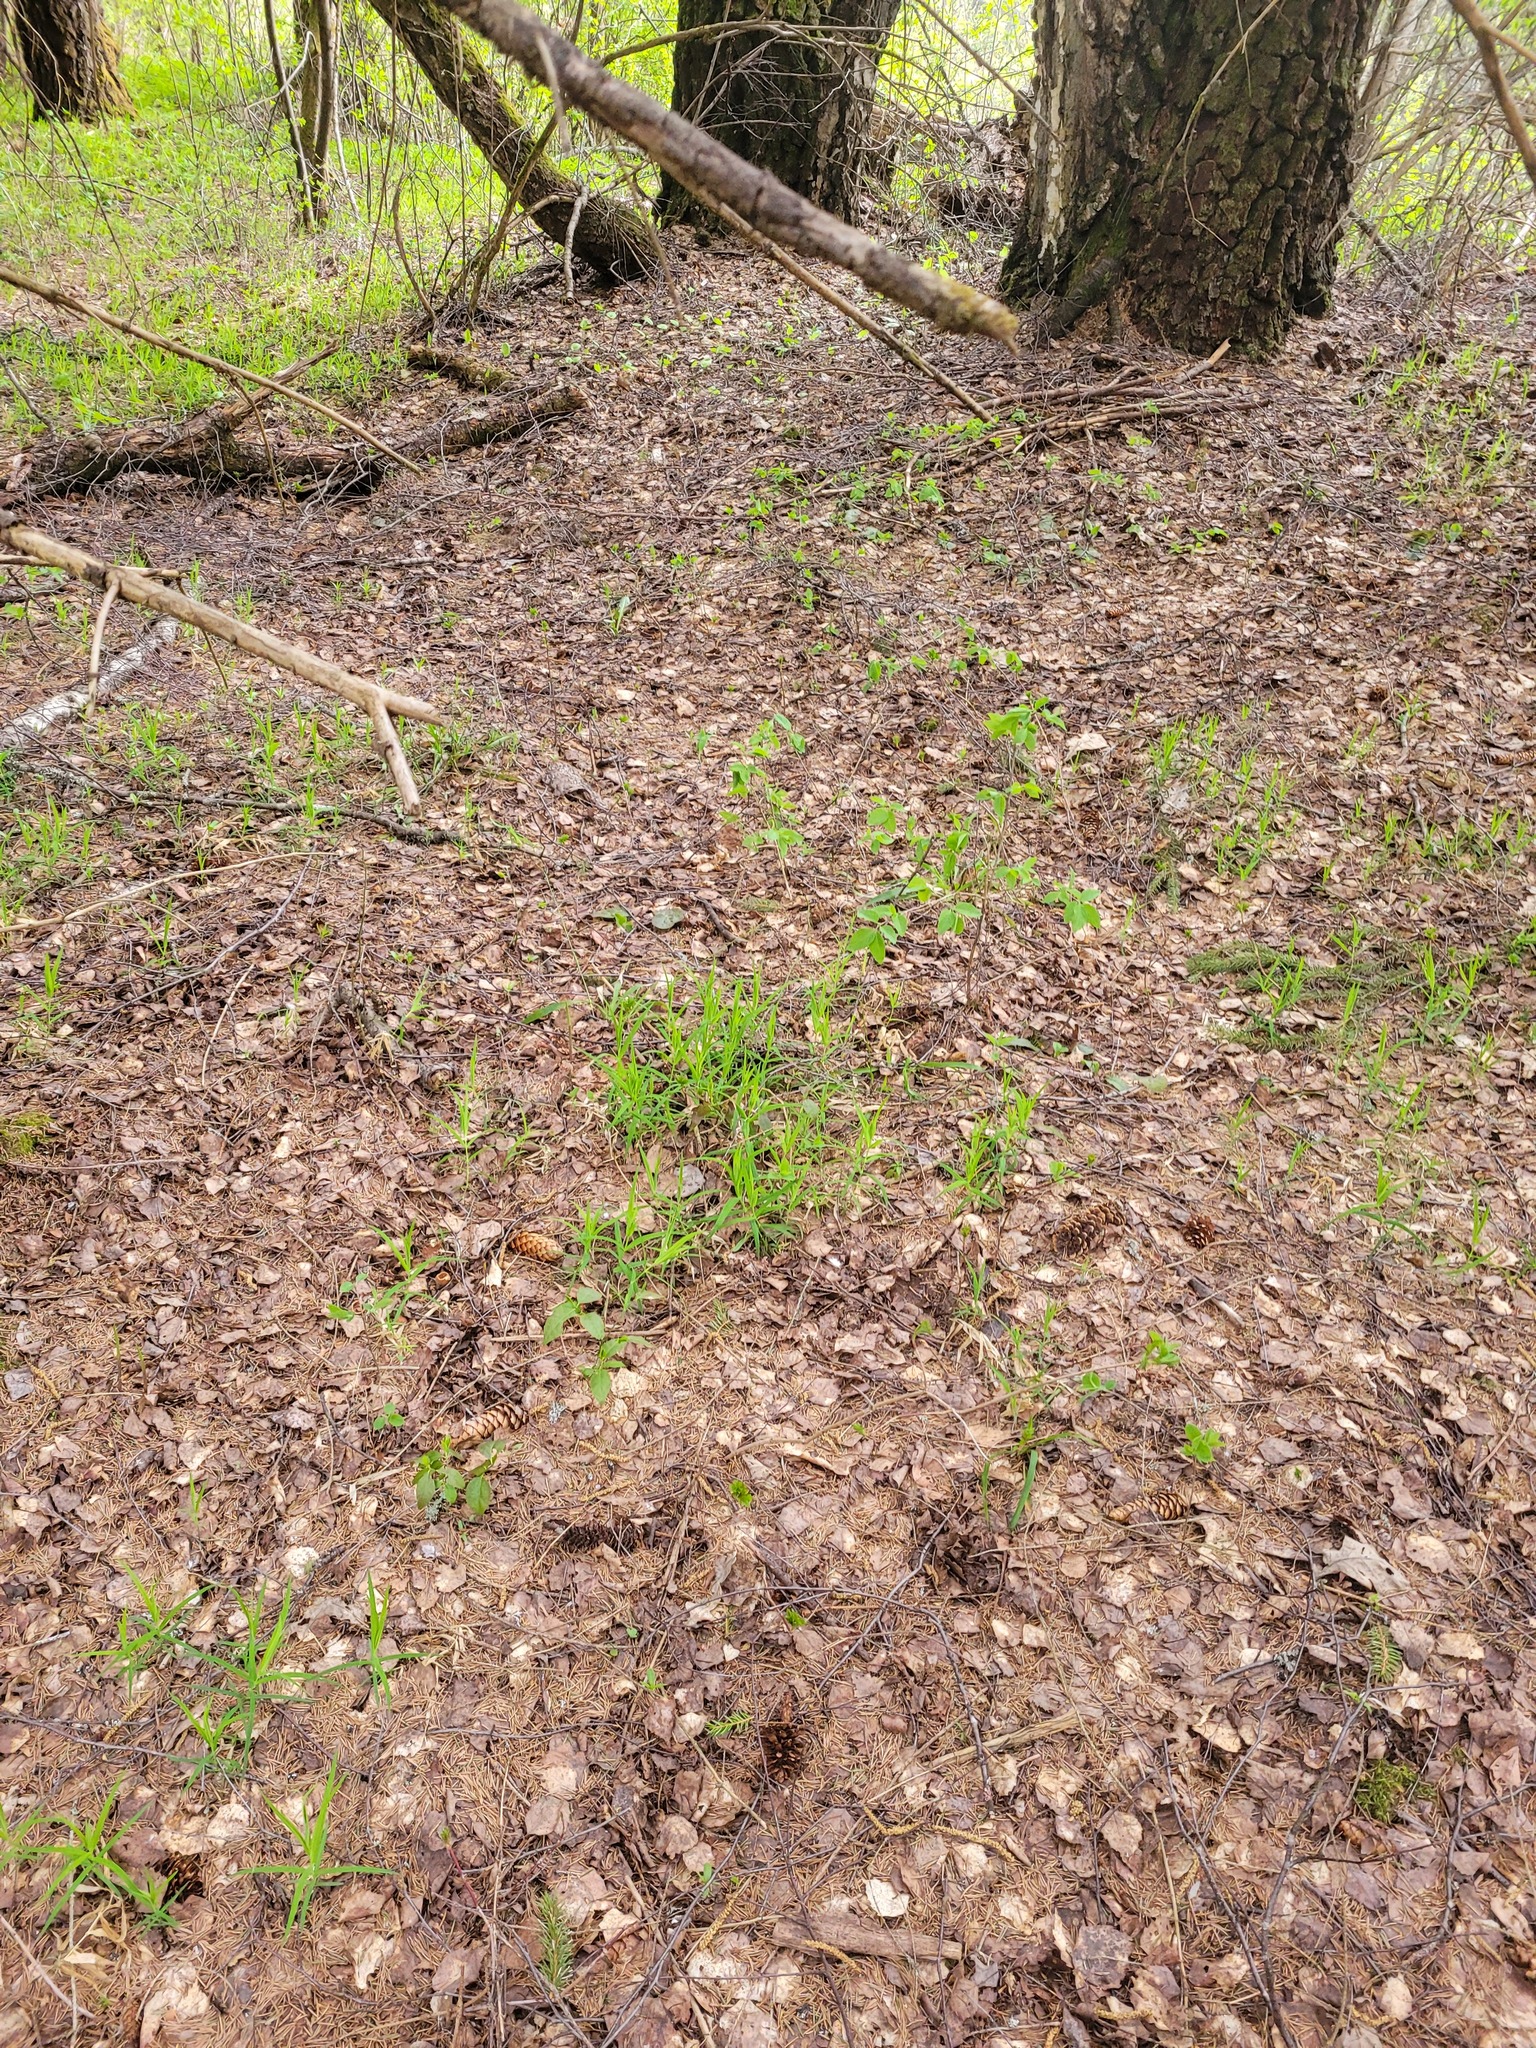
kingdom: Plantae
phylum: Tracheophyta
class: Magnoliopsida
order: Caryophyllales
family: Caryophyllaceae
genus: Rabelera
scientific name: Rabelera holostea
